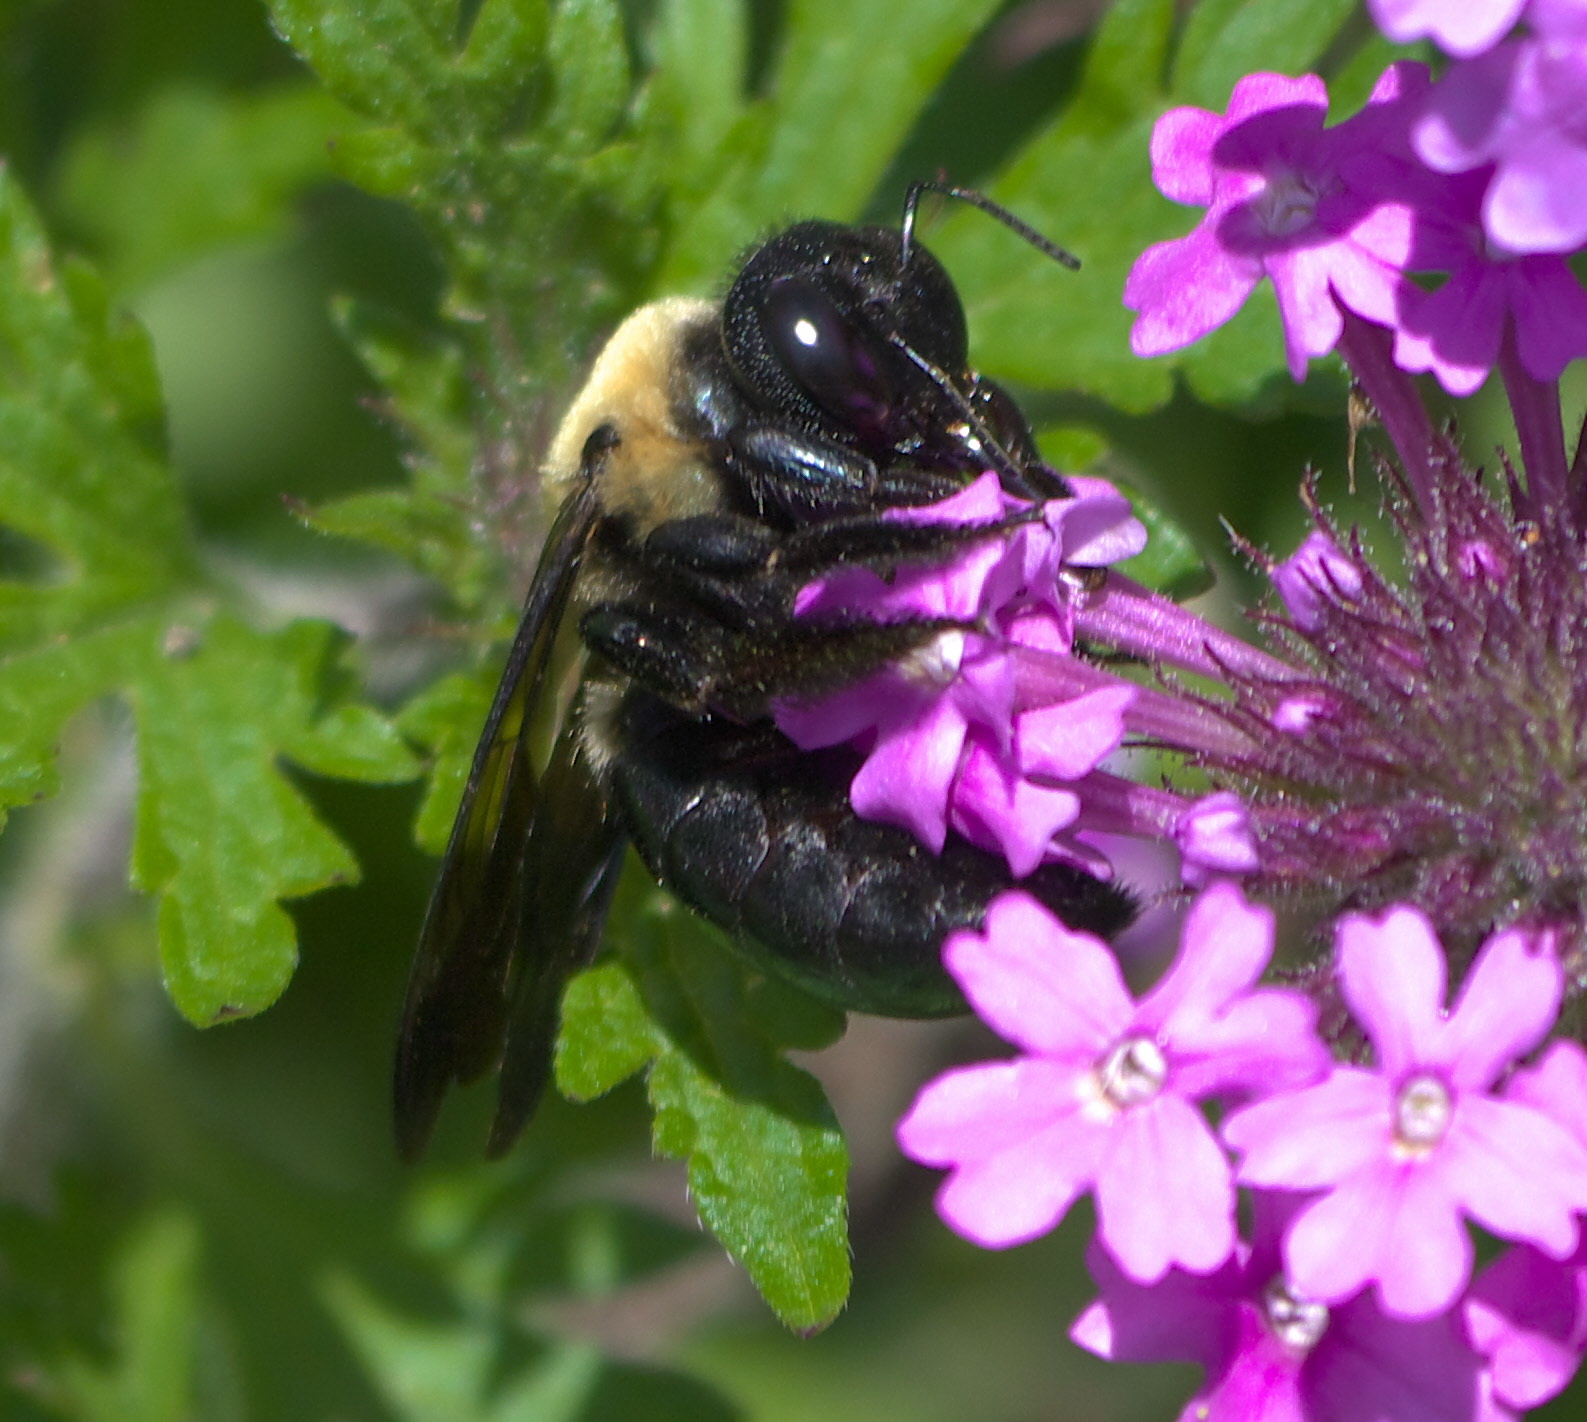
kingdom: Animalia
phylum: Arthropoda
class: Insecta
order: Hymenoptera
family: Apidae
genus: Xylocopa
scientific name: Xylocopa virginica
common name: Carpenter bee
